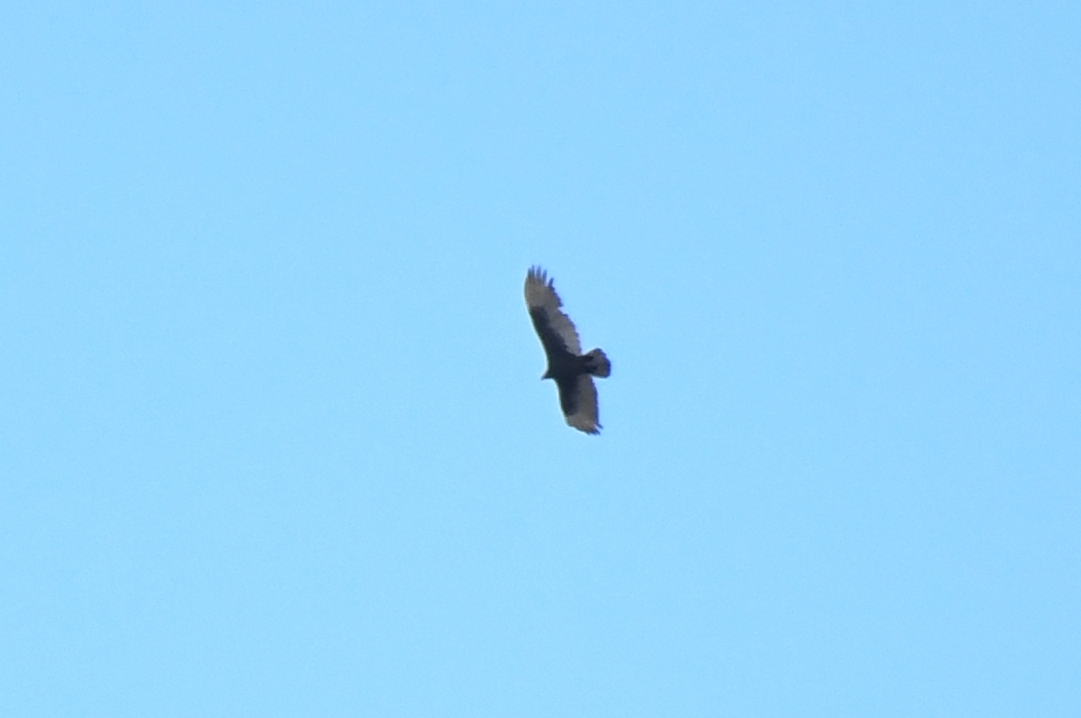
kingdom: Animalia
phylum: Chordata
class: Aves
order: Accipitriformes
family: Cathartidae
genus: Cathartes
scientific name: Cathartes aura
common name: Turkey vulture
